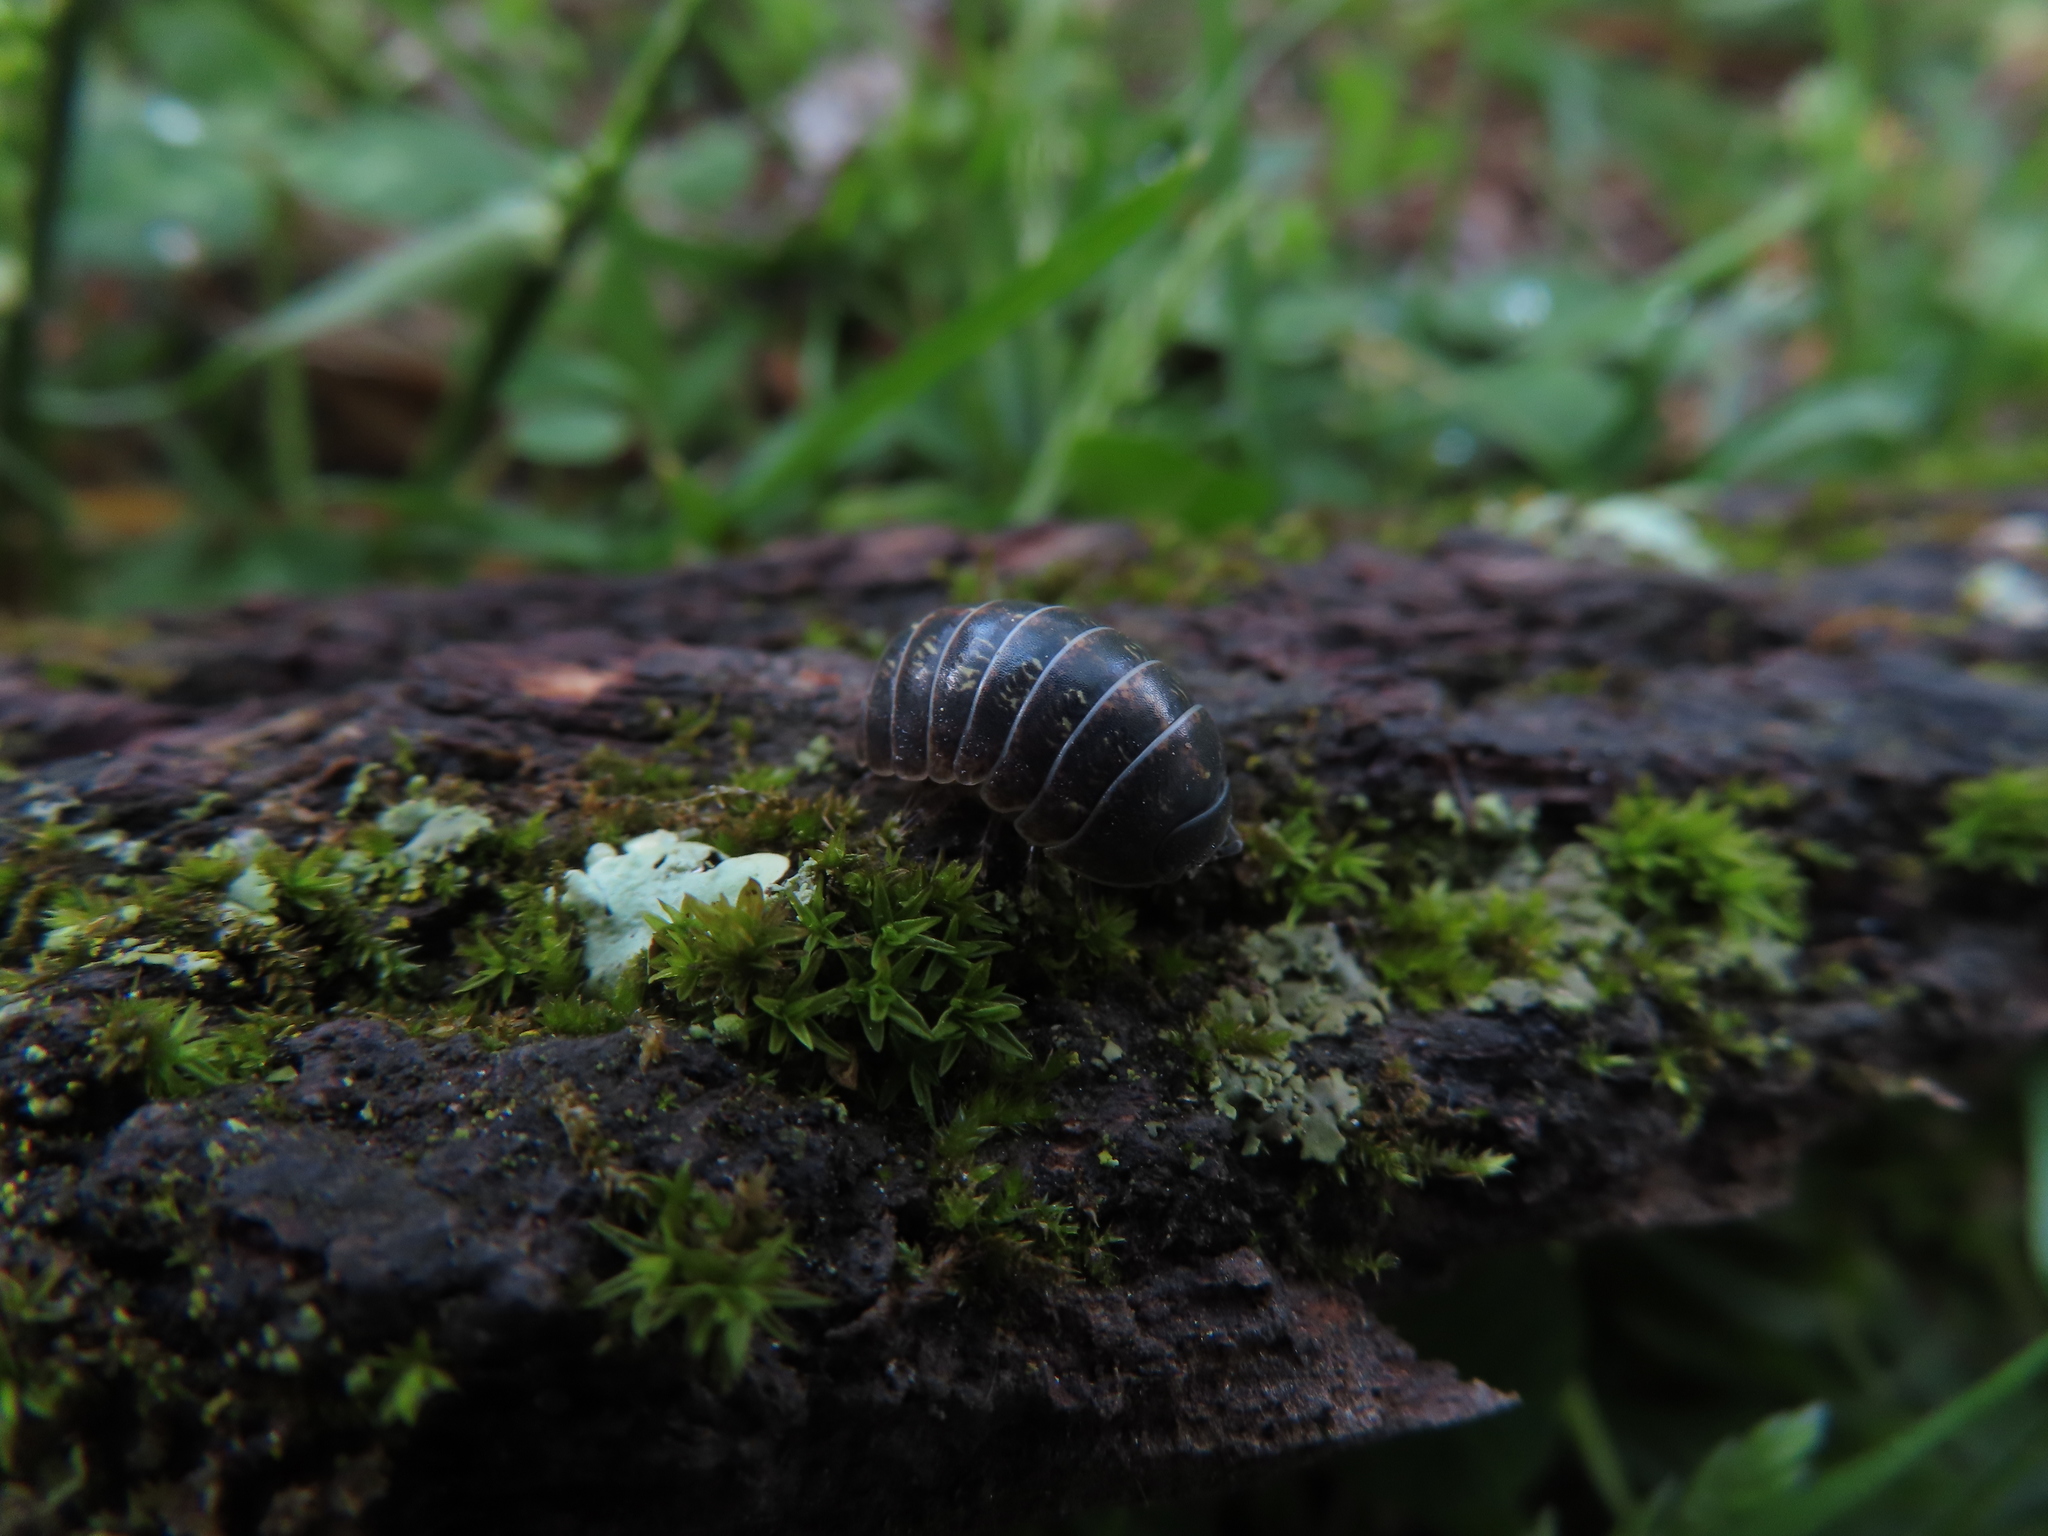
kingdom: Animalia
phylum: Arthropoda
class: Malacostraca
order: Isopoda
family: Armadillidiidae
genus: Armadillidium
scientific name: Armadillidium vulgare
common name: Common pill woodlouse
